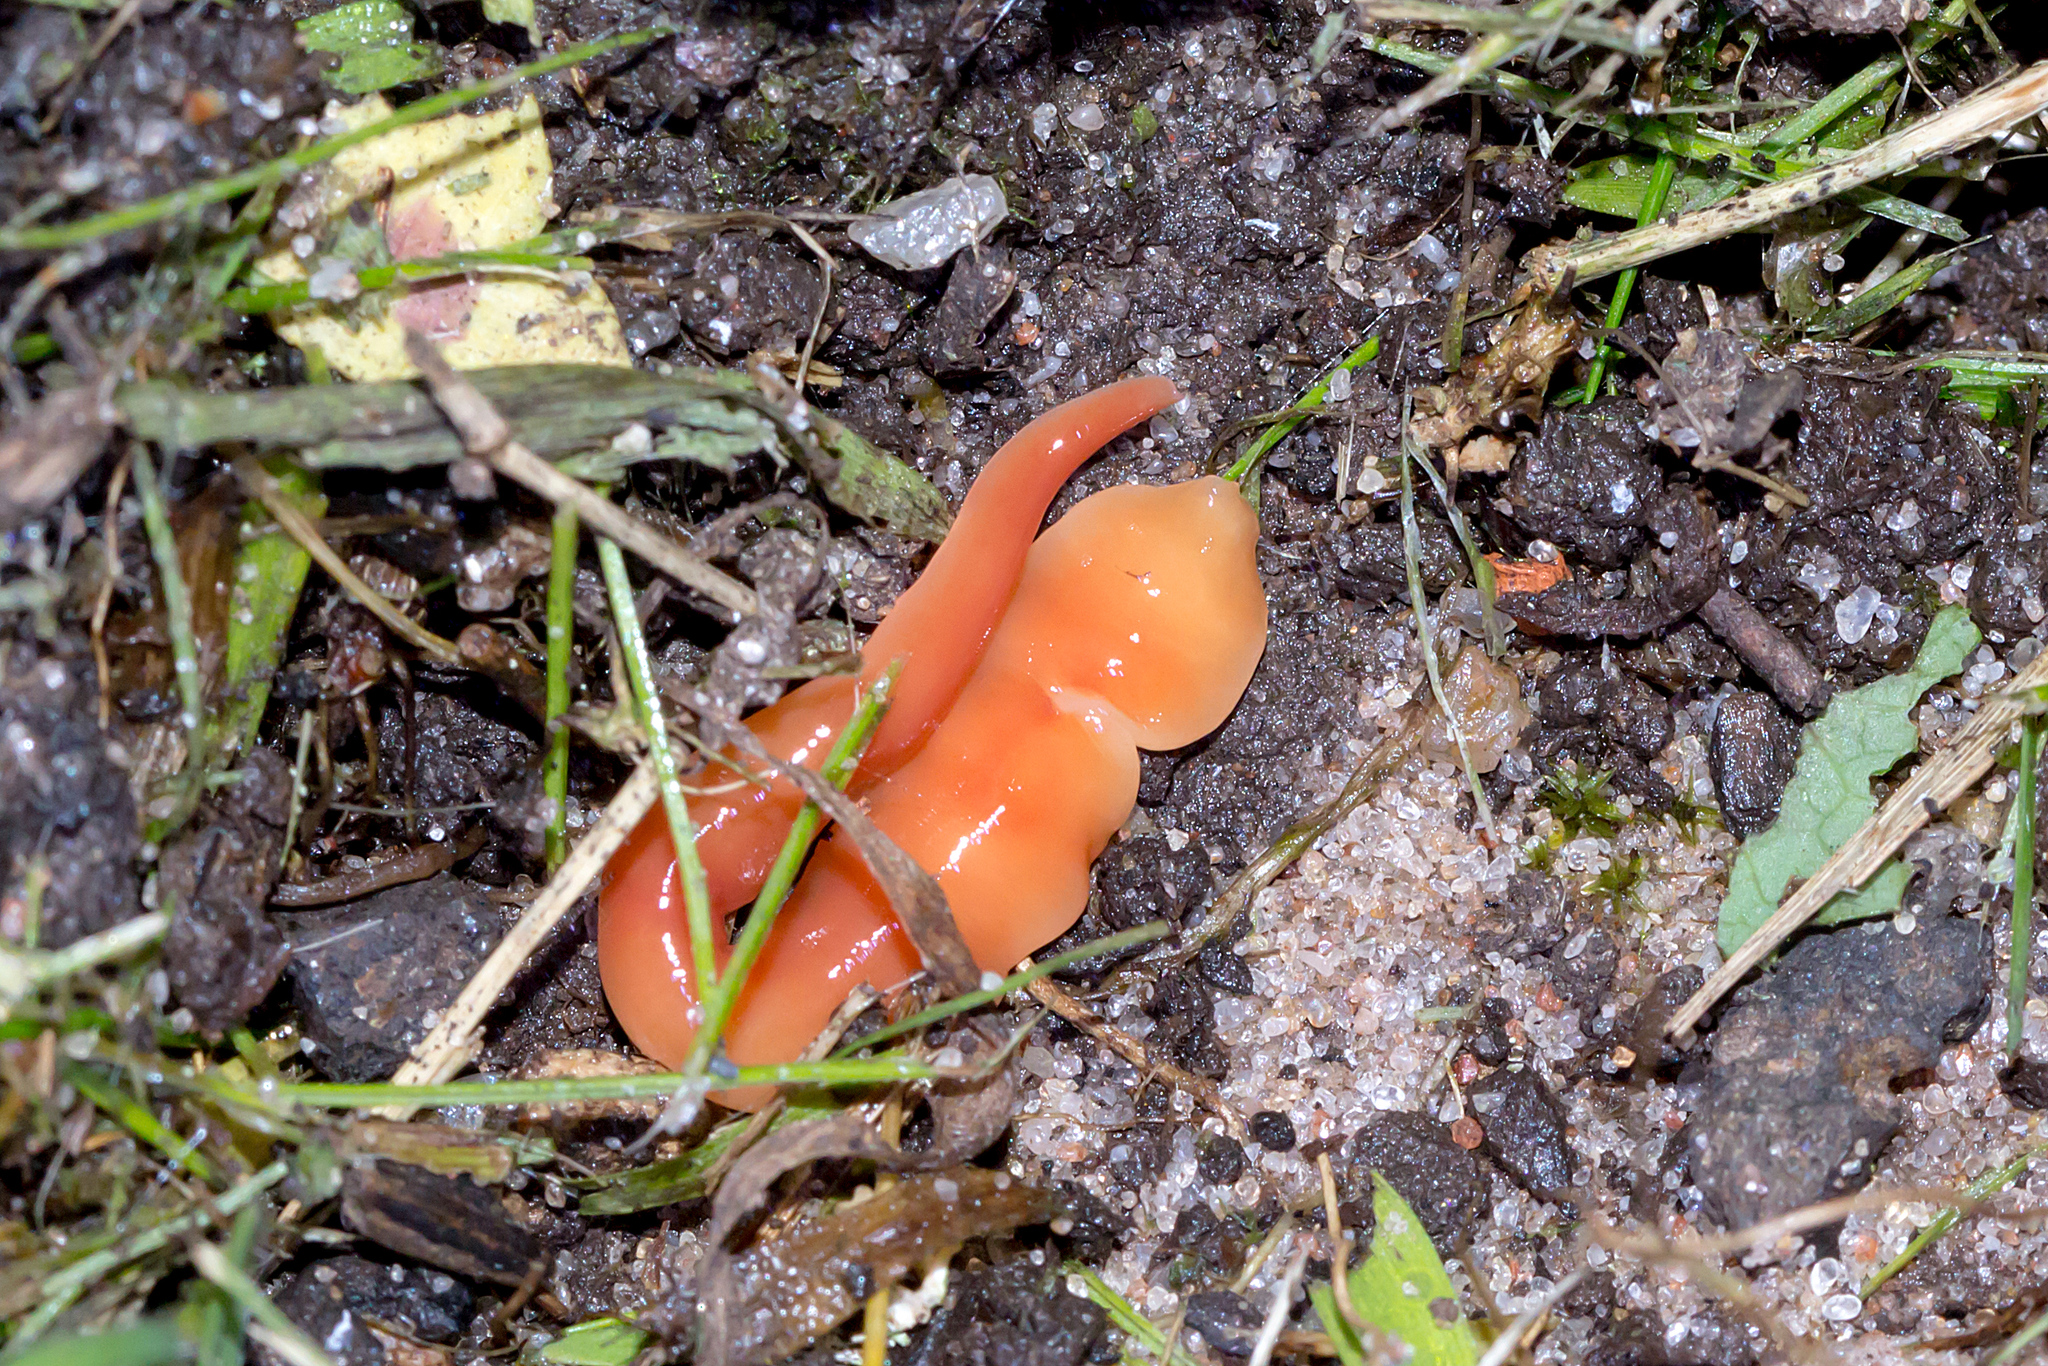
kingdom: Animalia
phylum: Platyhelminthes
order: Tricladida
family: Geoplanidae
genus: Australoplana
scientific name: Australoplana alba
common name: Australian flatworm
